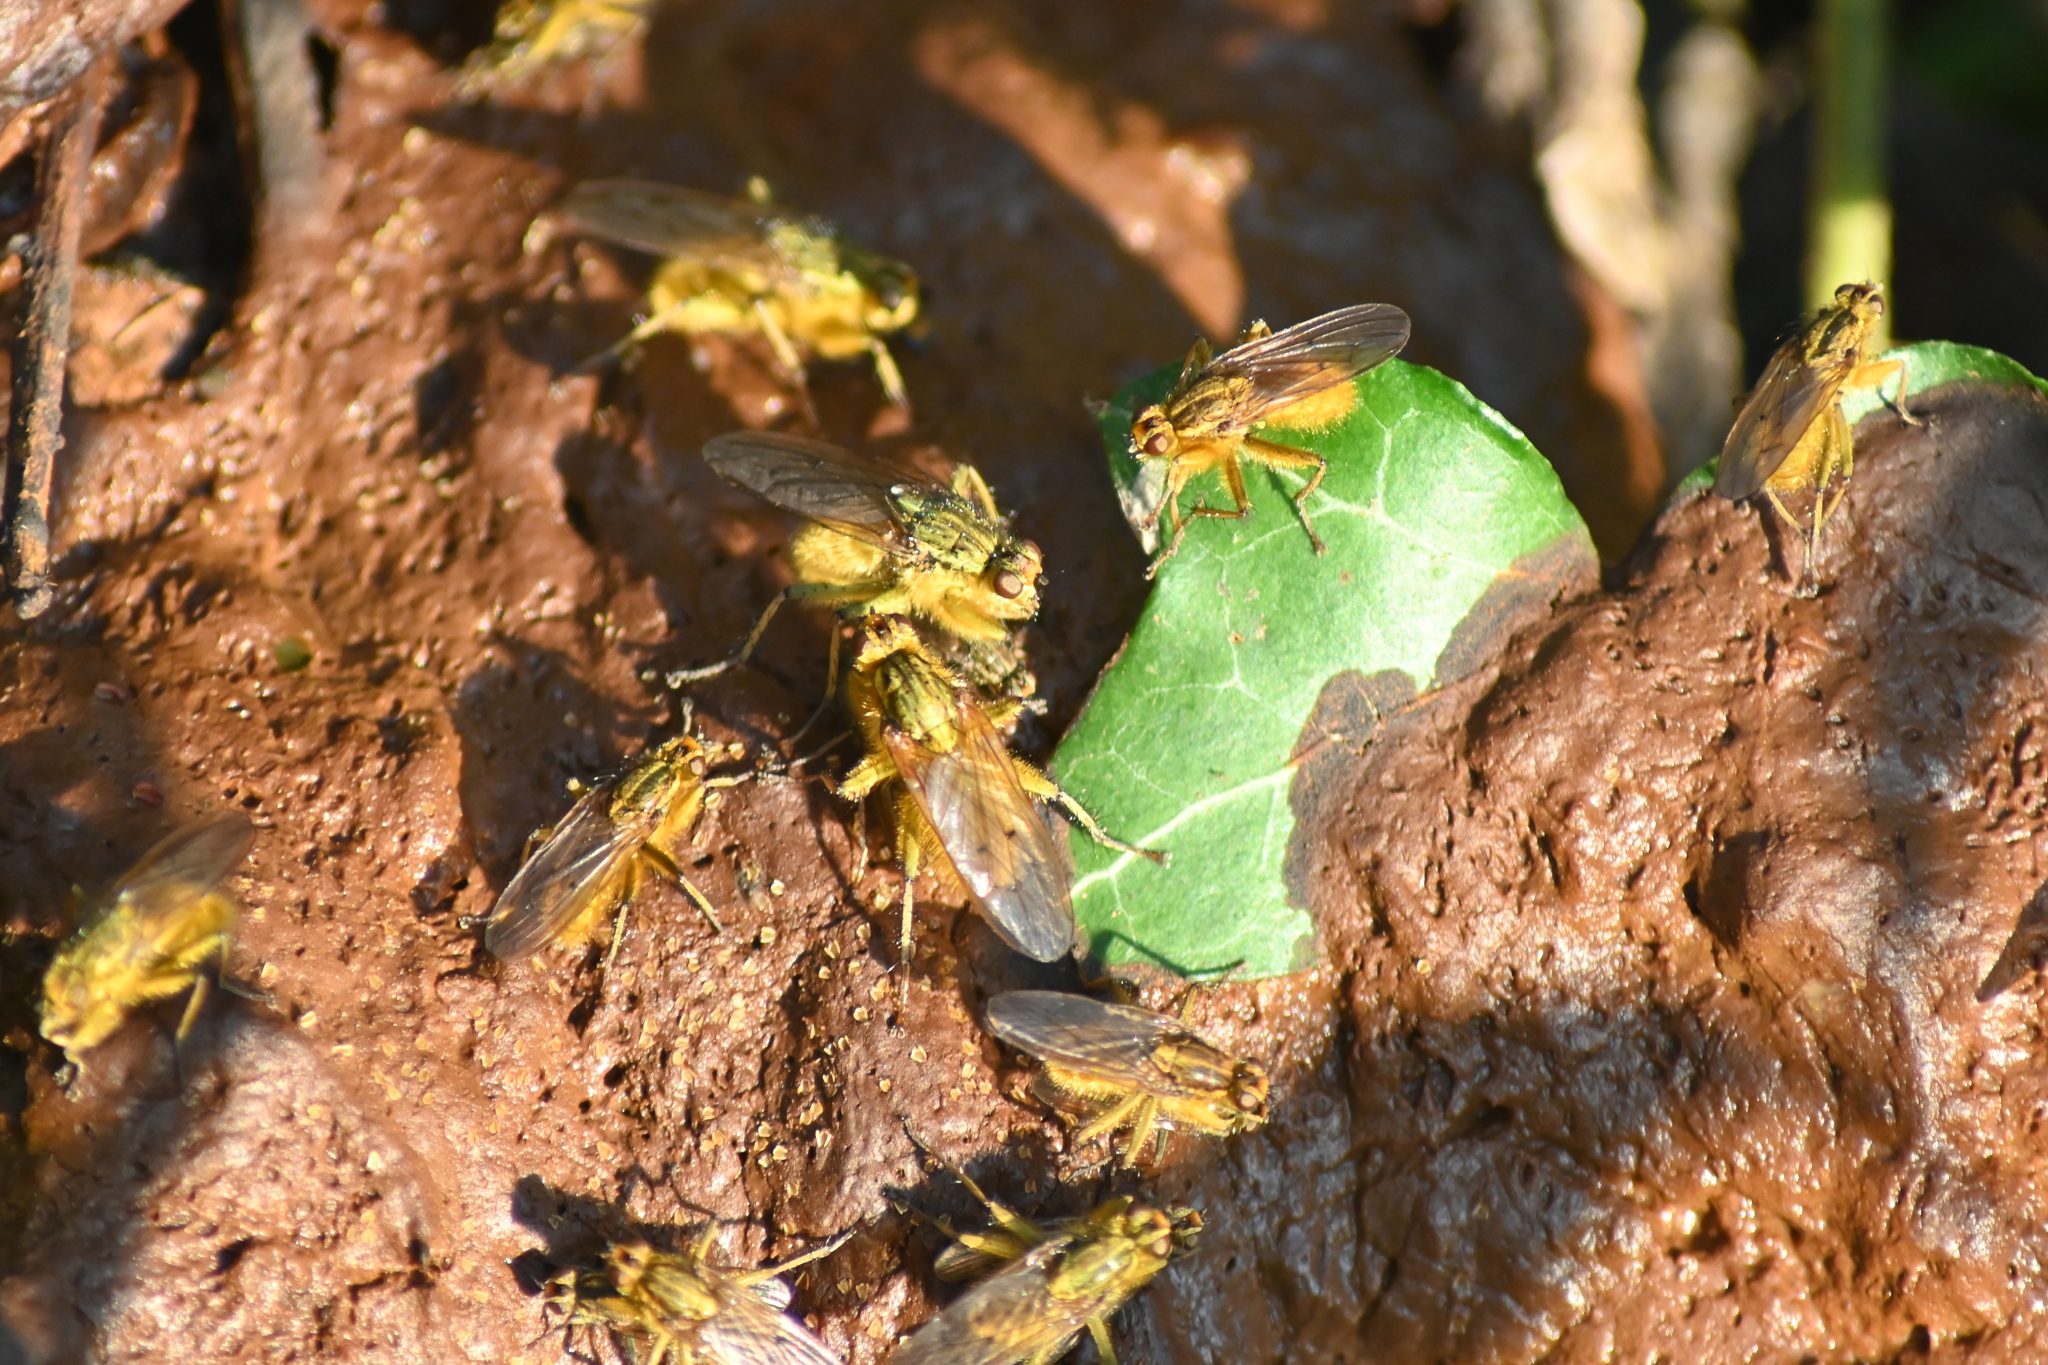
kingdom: Animalia
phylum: Arthropoda
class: Insecta
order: Diptera
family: Scathophagidae
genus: Scathophaga
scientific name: Scathophaga stercoraria
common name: Yellow dung fly
